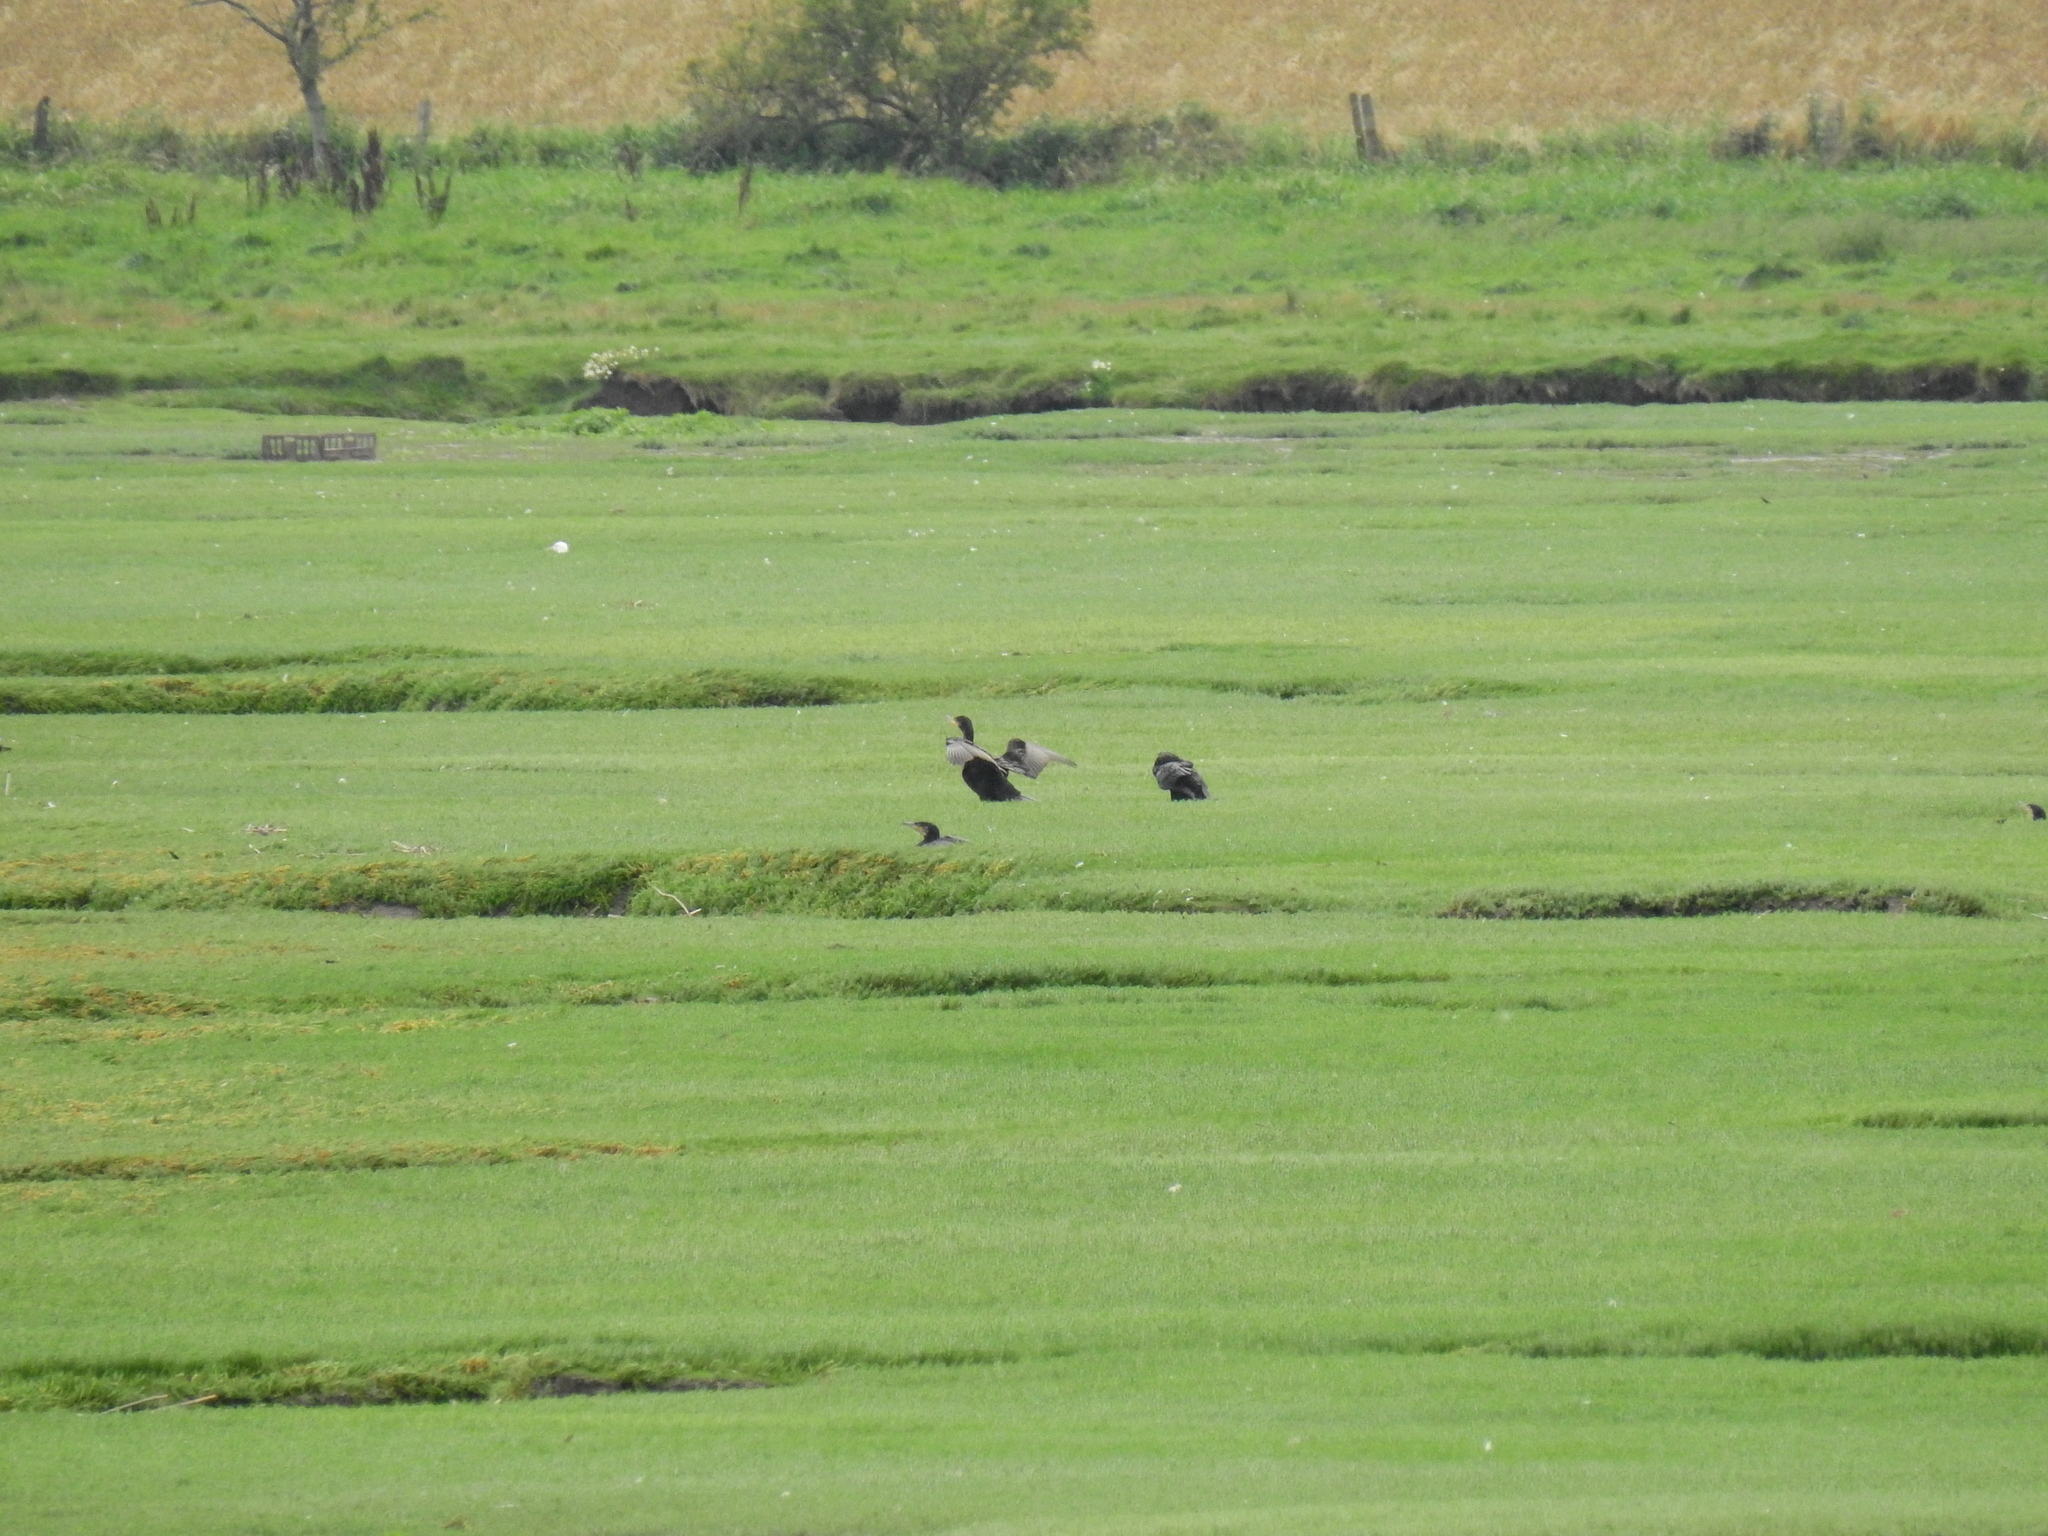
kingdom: Animalia
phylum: Chordata
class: Aves
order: Suliformes
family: Phalacrocoracidae
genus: Phalacrocorax
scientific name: Phalacrocorax carbo
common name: Great cormorant
